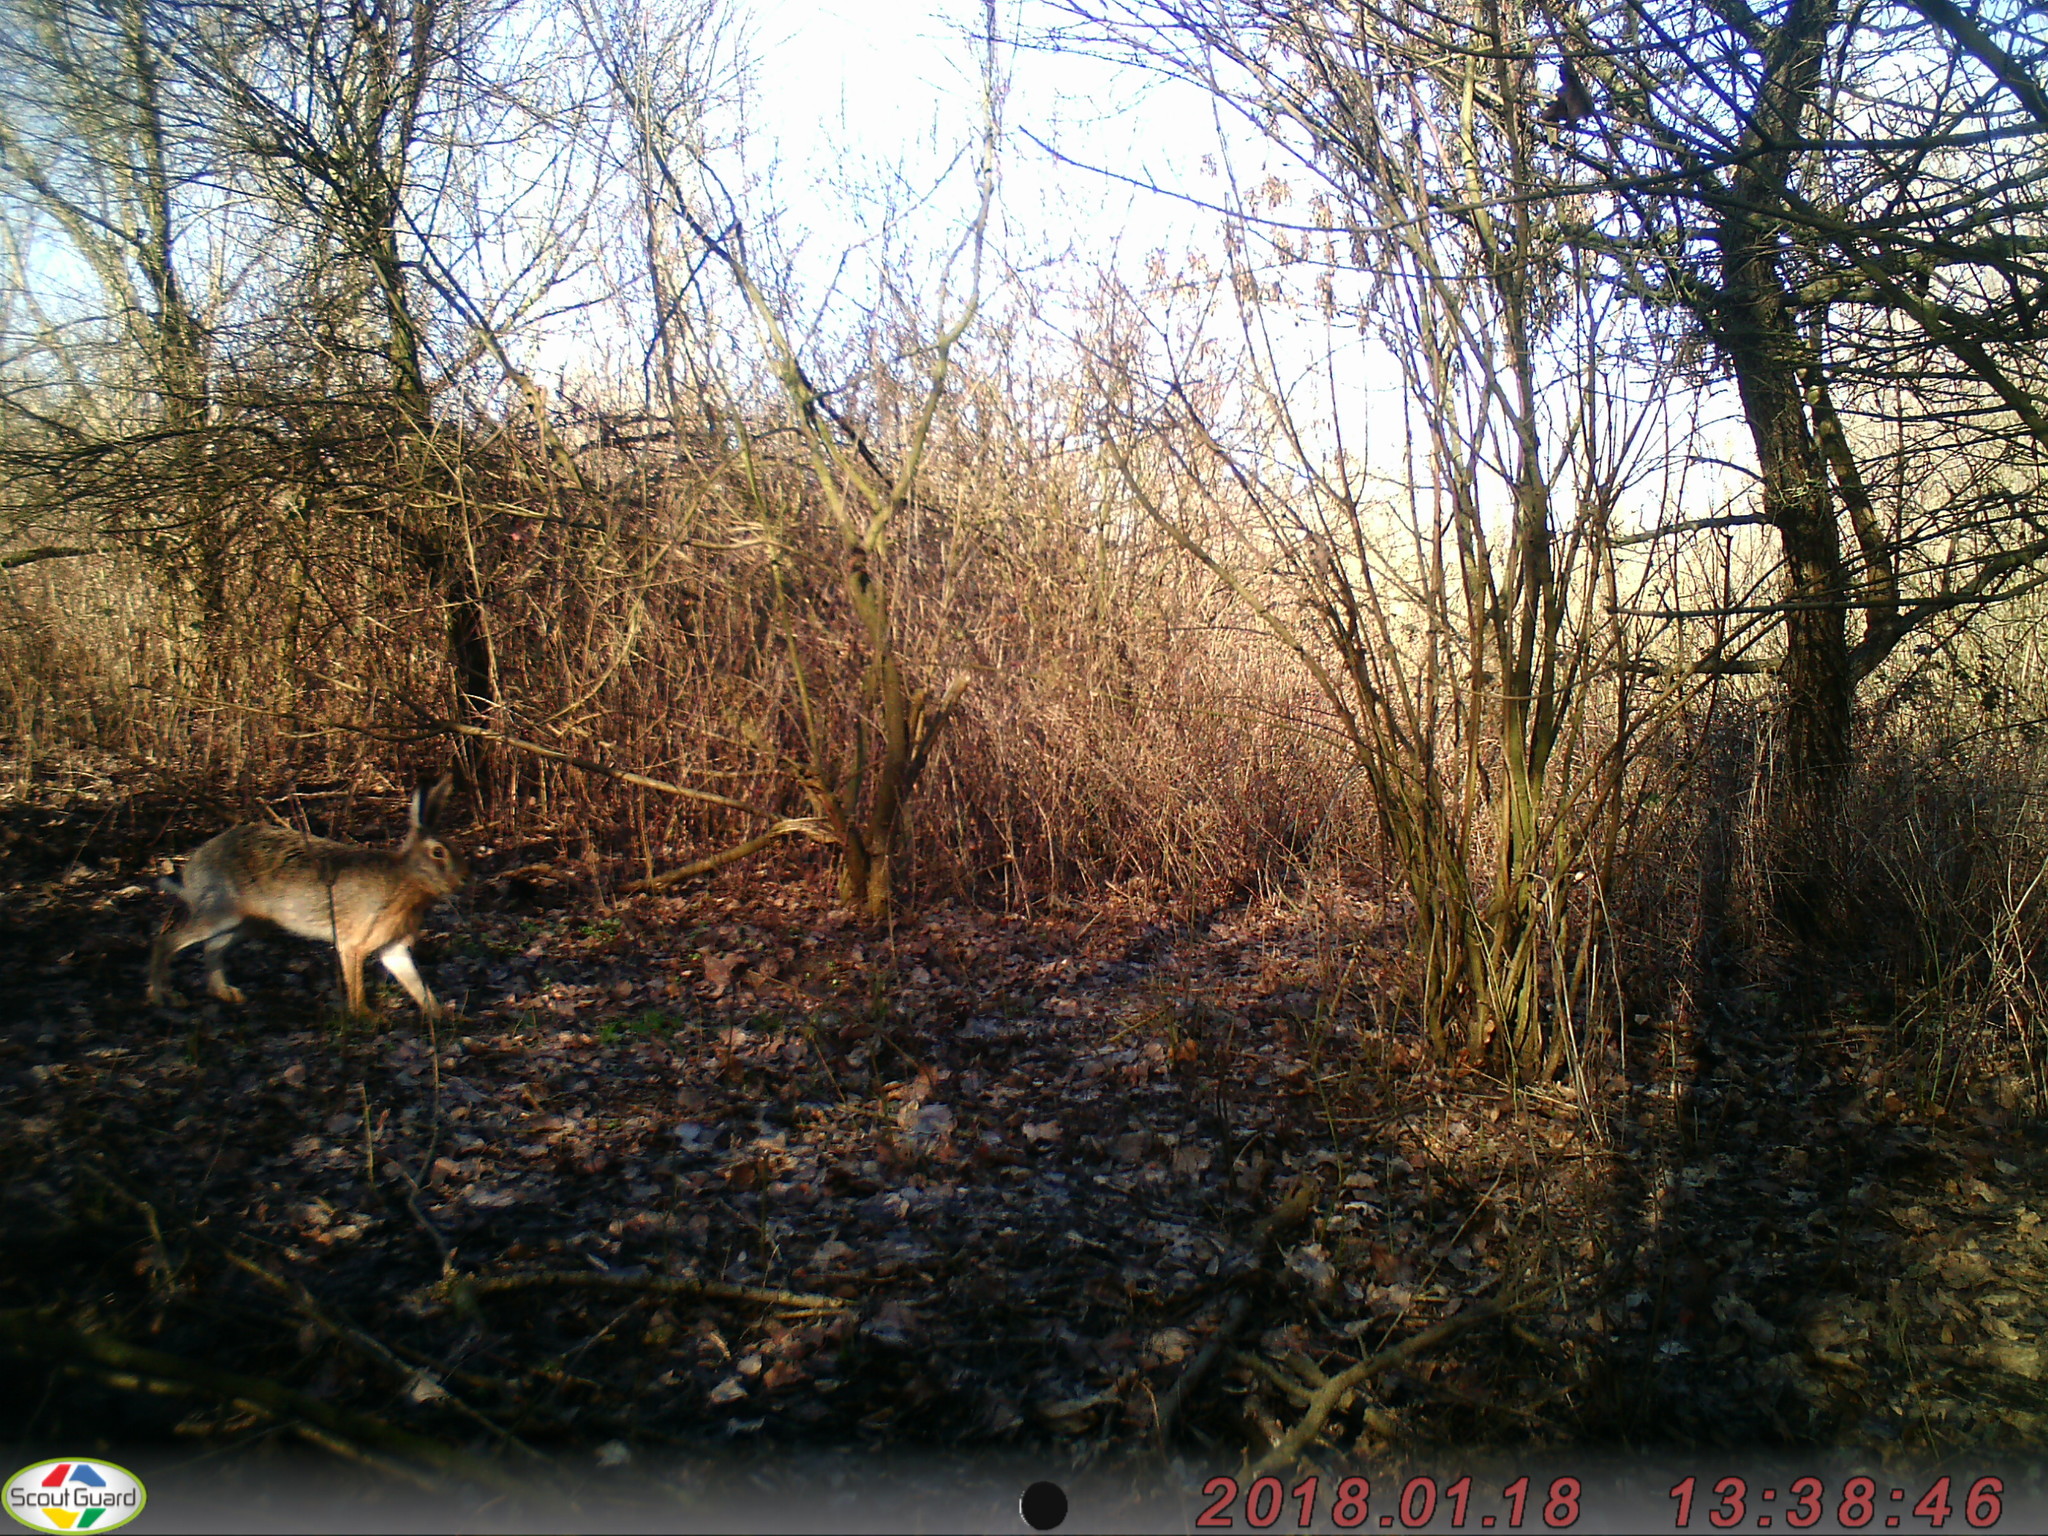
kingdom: Animalia
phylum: Chordata
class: Mammalia
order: Lagomorpha
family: Leporidae
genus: Lepus
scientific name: Lepus europaeus
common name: European hare
